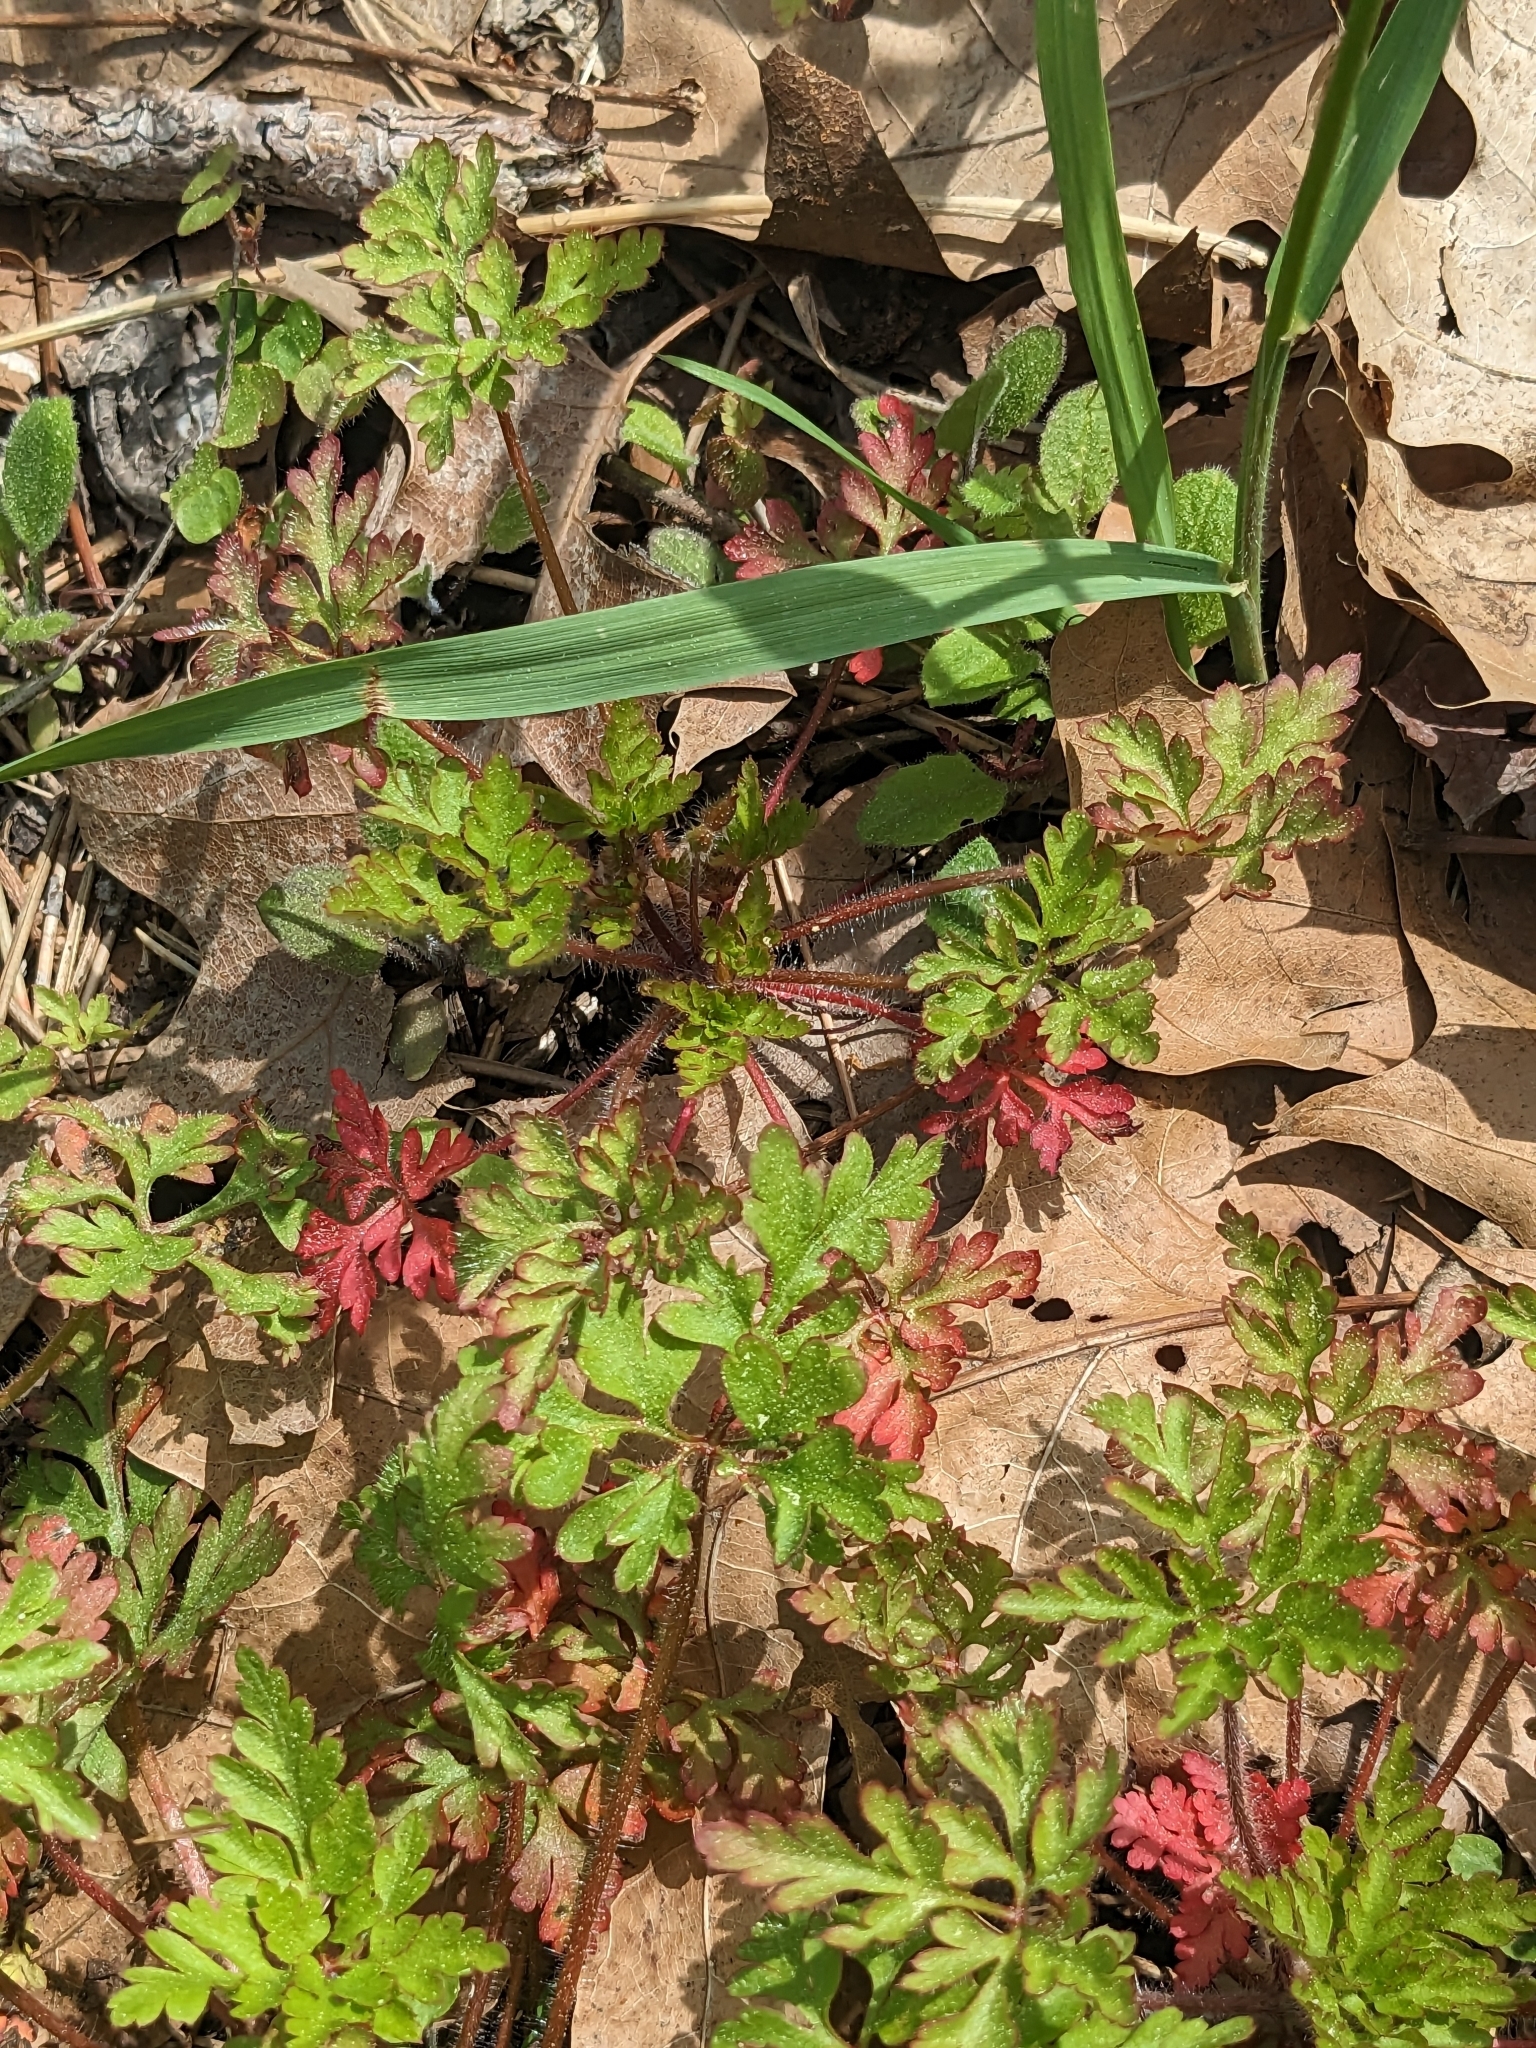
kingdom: Plantae
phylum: Tracheophyta
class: Magnoliopsida
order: Geraniales
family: Geraniaceae
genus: Geranium
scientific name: Geranium robertianum
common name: Herb-robert
